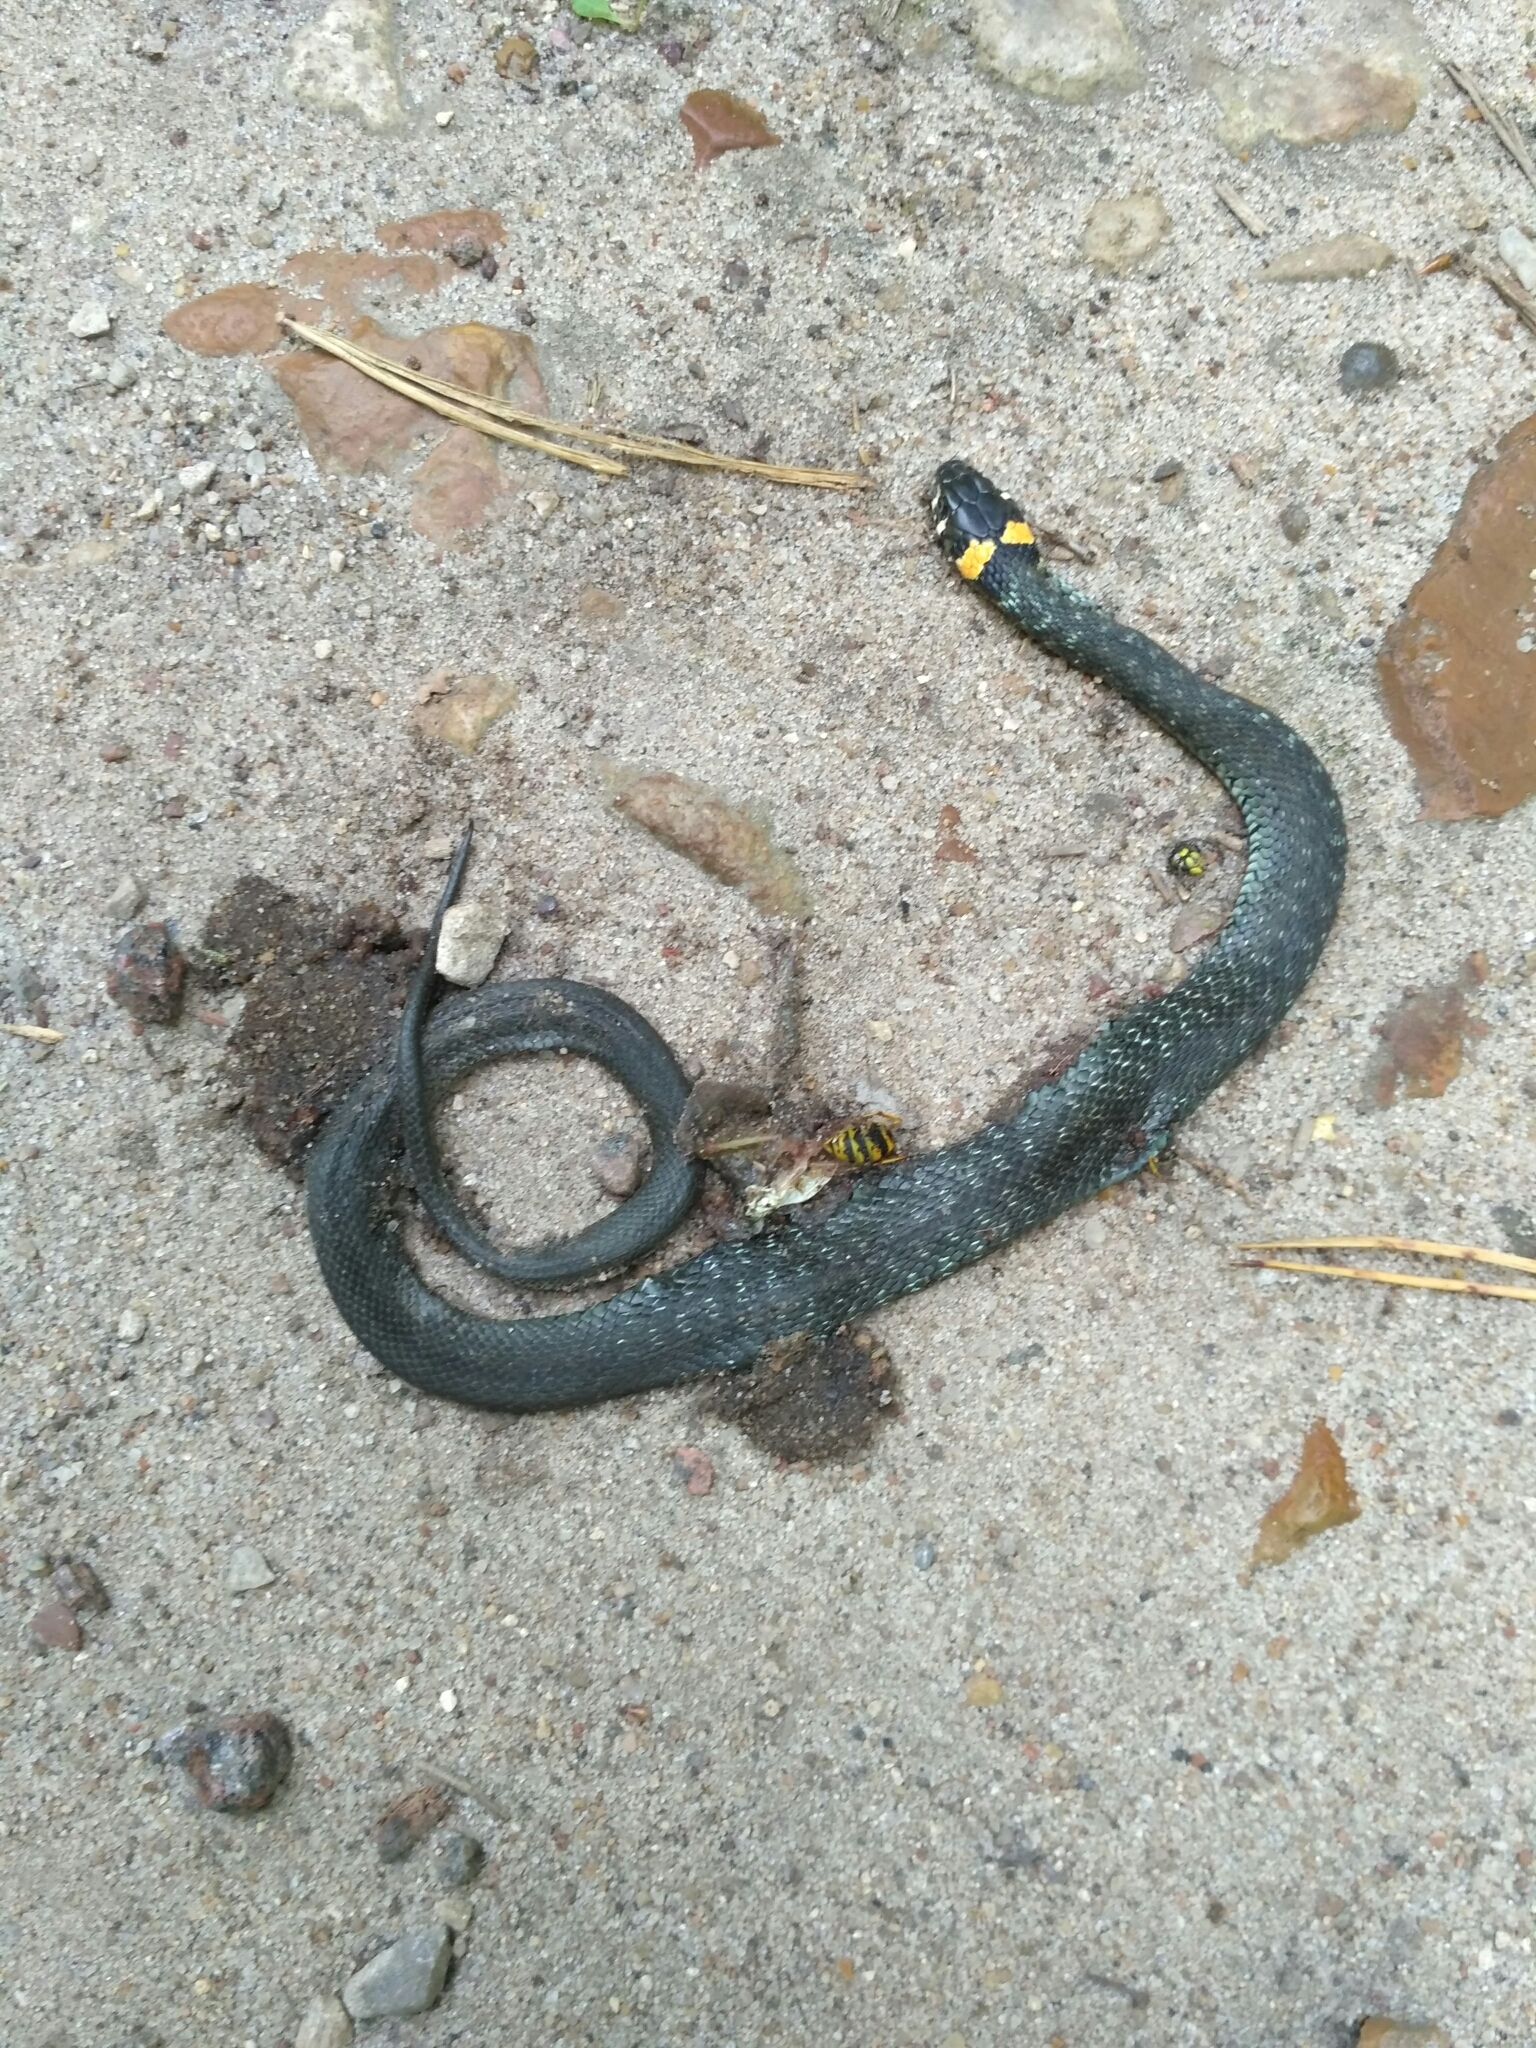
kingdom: Animalia
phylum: Chordata
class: Squamata
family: Colubridae
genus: Natrix
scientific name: Natrix natrix
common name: Grass snake
